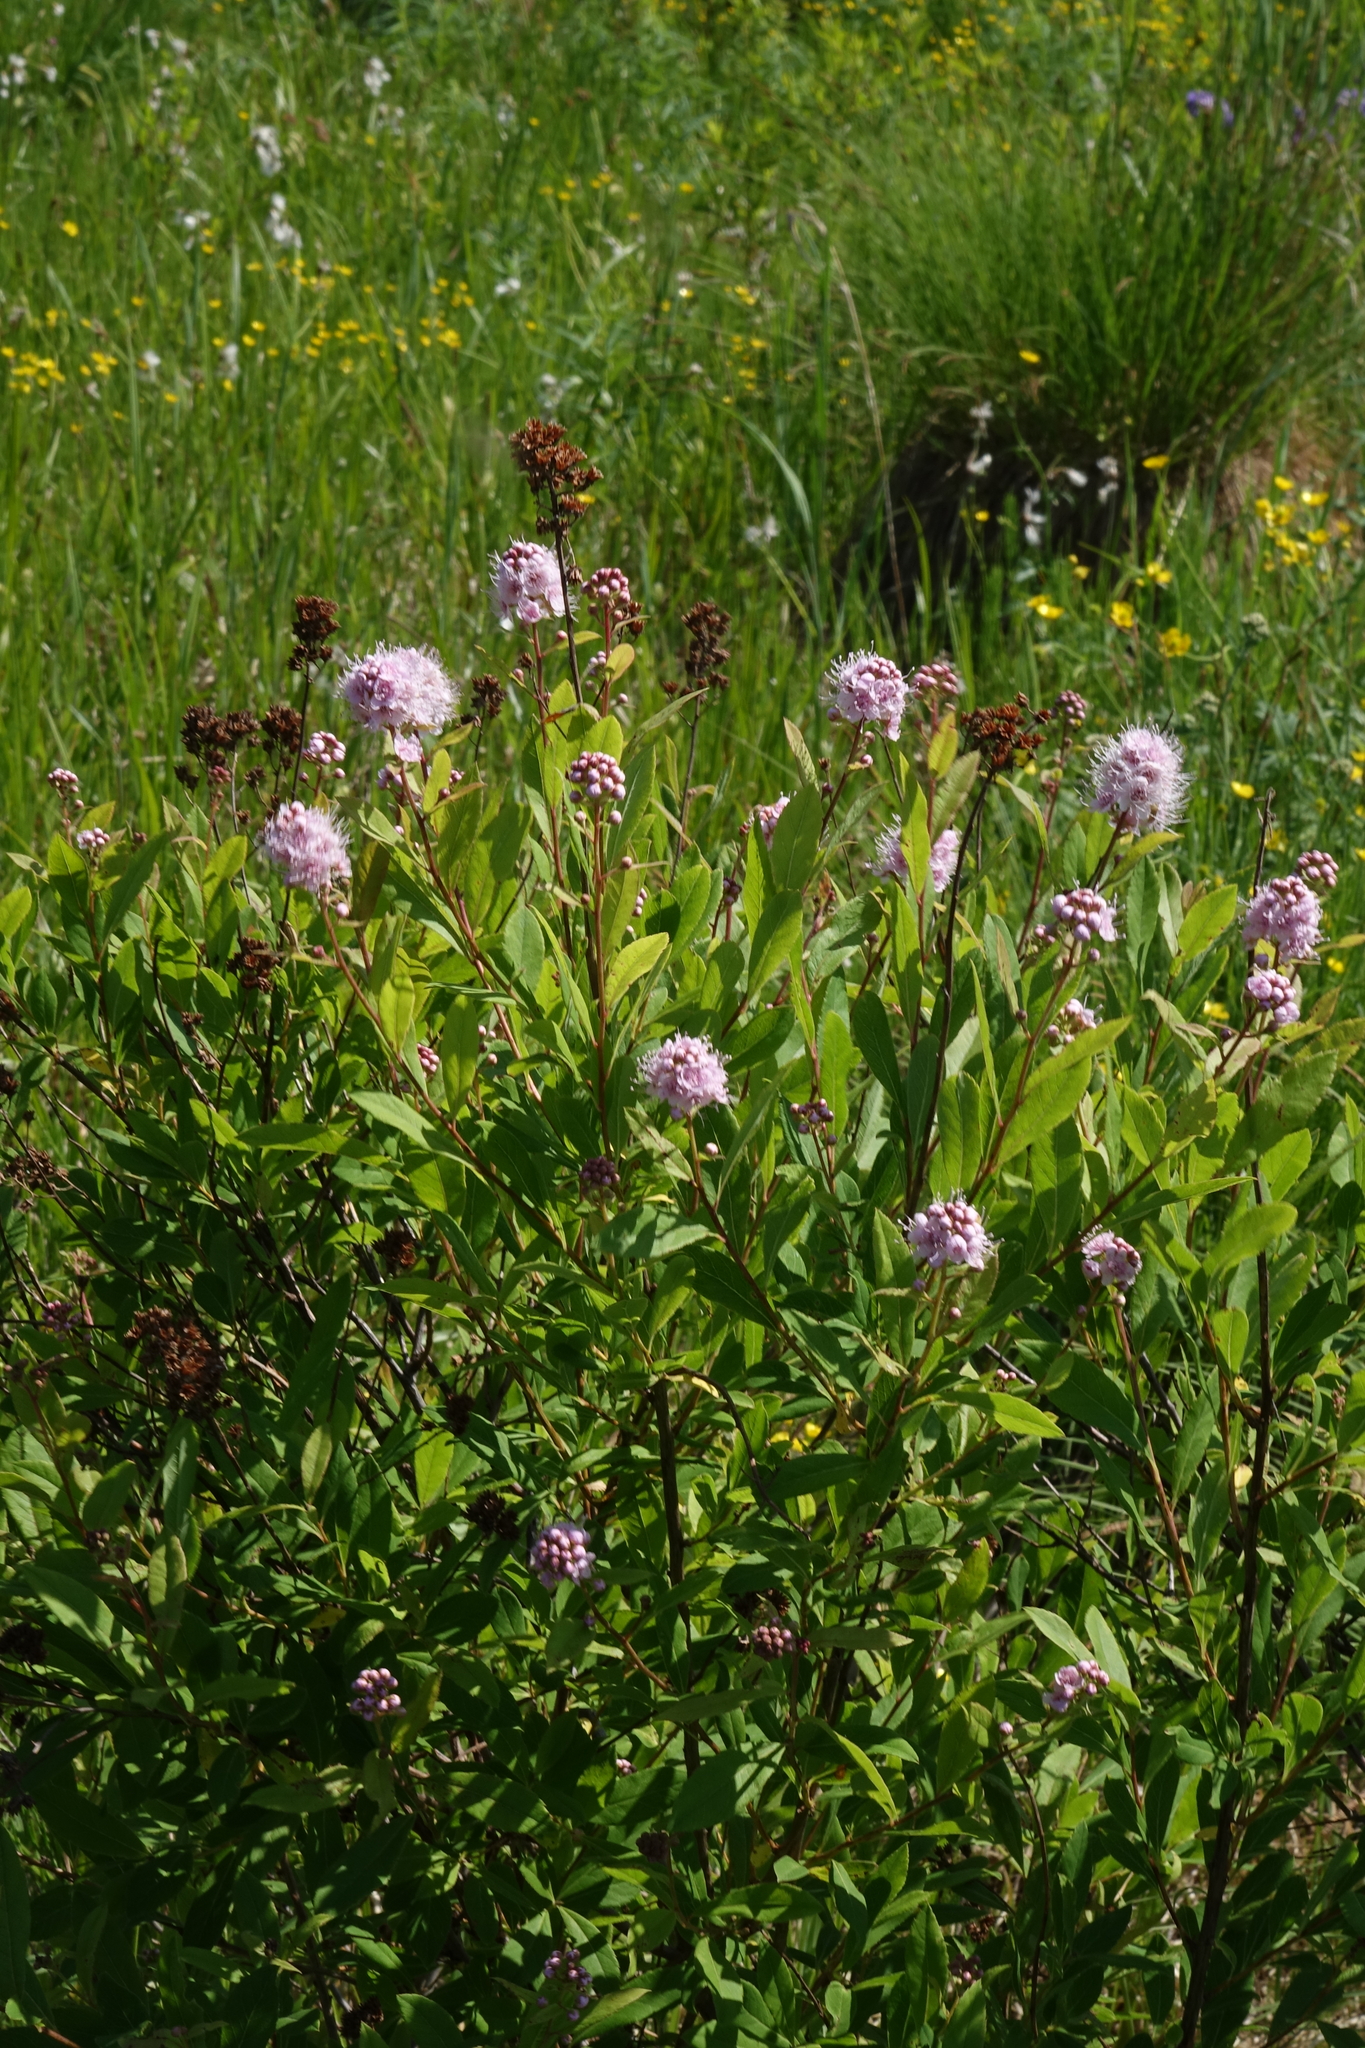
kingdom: Plantae
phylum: Tracheophyta
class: Magnoliopsida
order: Rosales
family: Rosaceae
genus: Spiraea
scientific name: Spiraea salicifolia
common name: Bridewort
